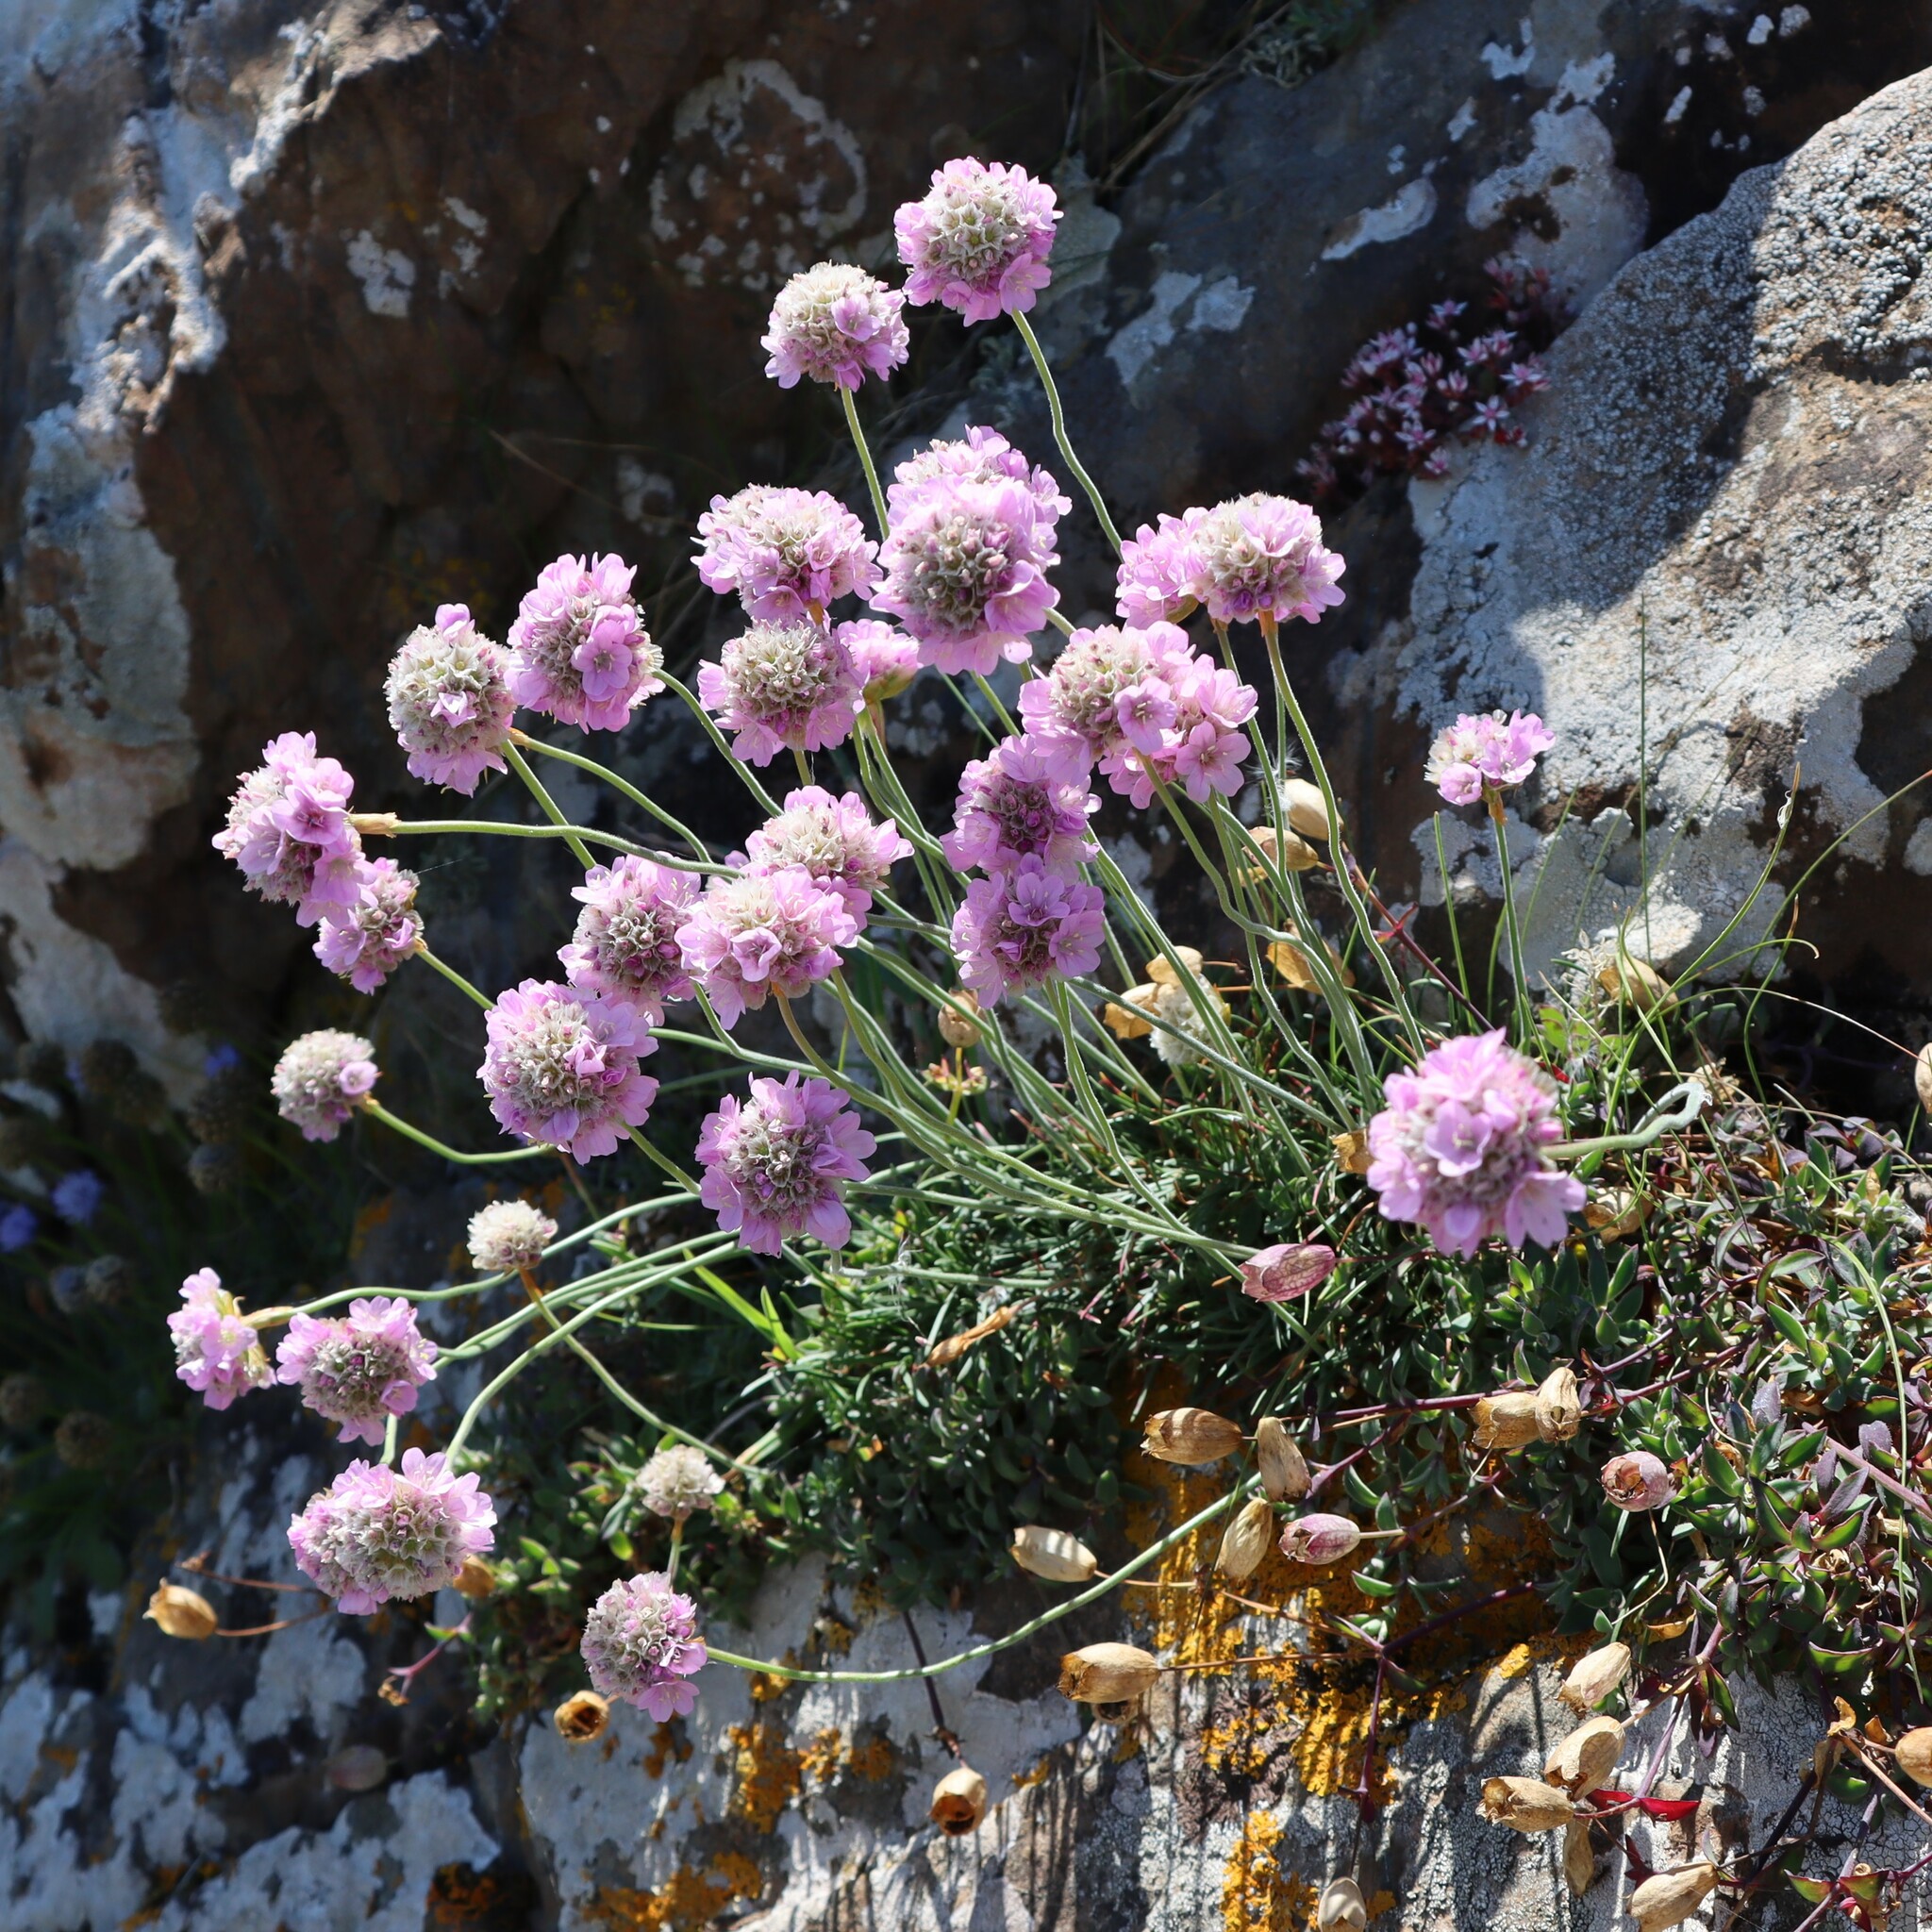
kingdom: Plantae
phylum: Tracheophyta
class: Magnoliopsida
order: Caryophyllales
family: Plumbaginaceae
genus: Armeria
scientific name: Armeria maritima
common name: Thrift
